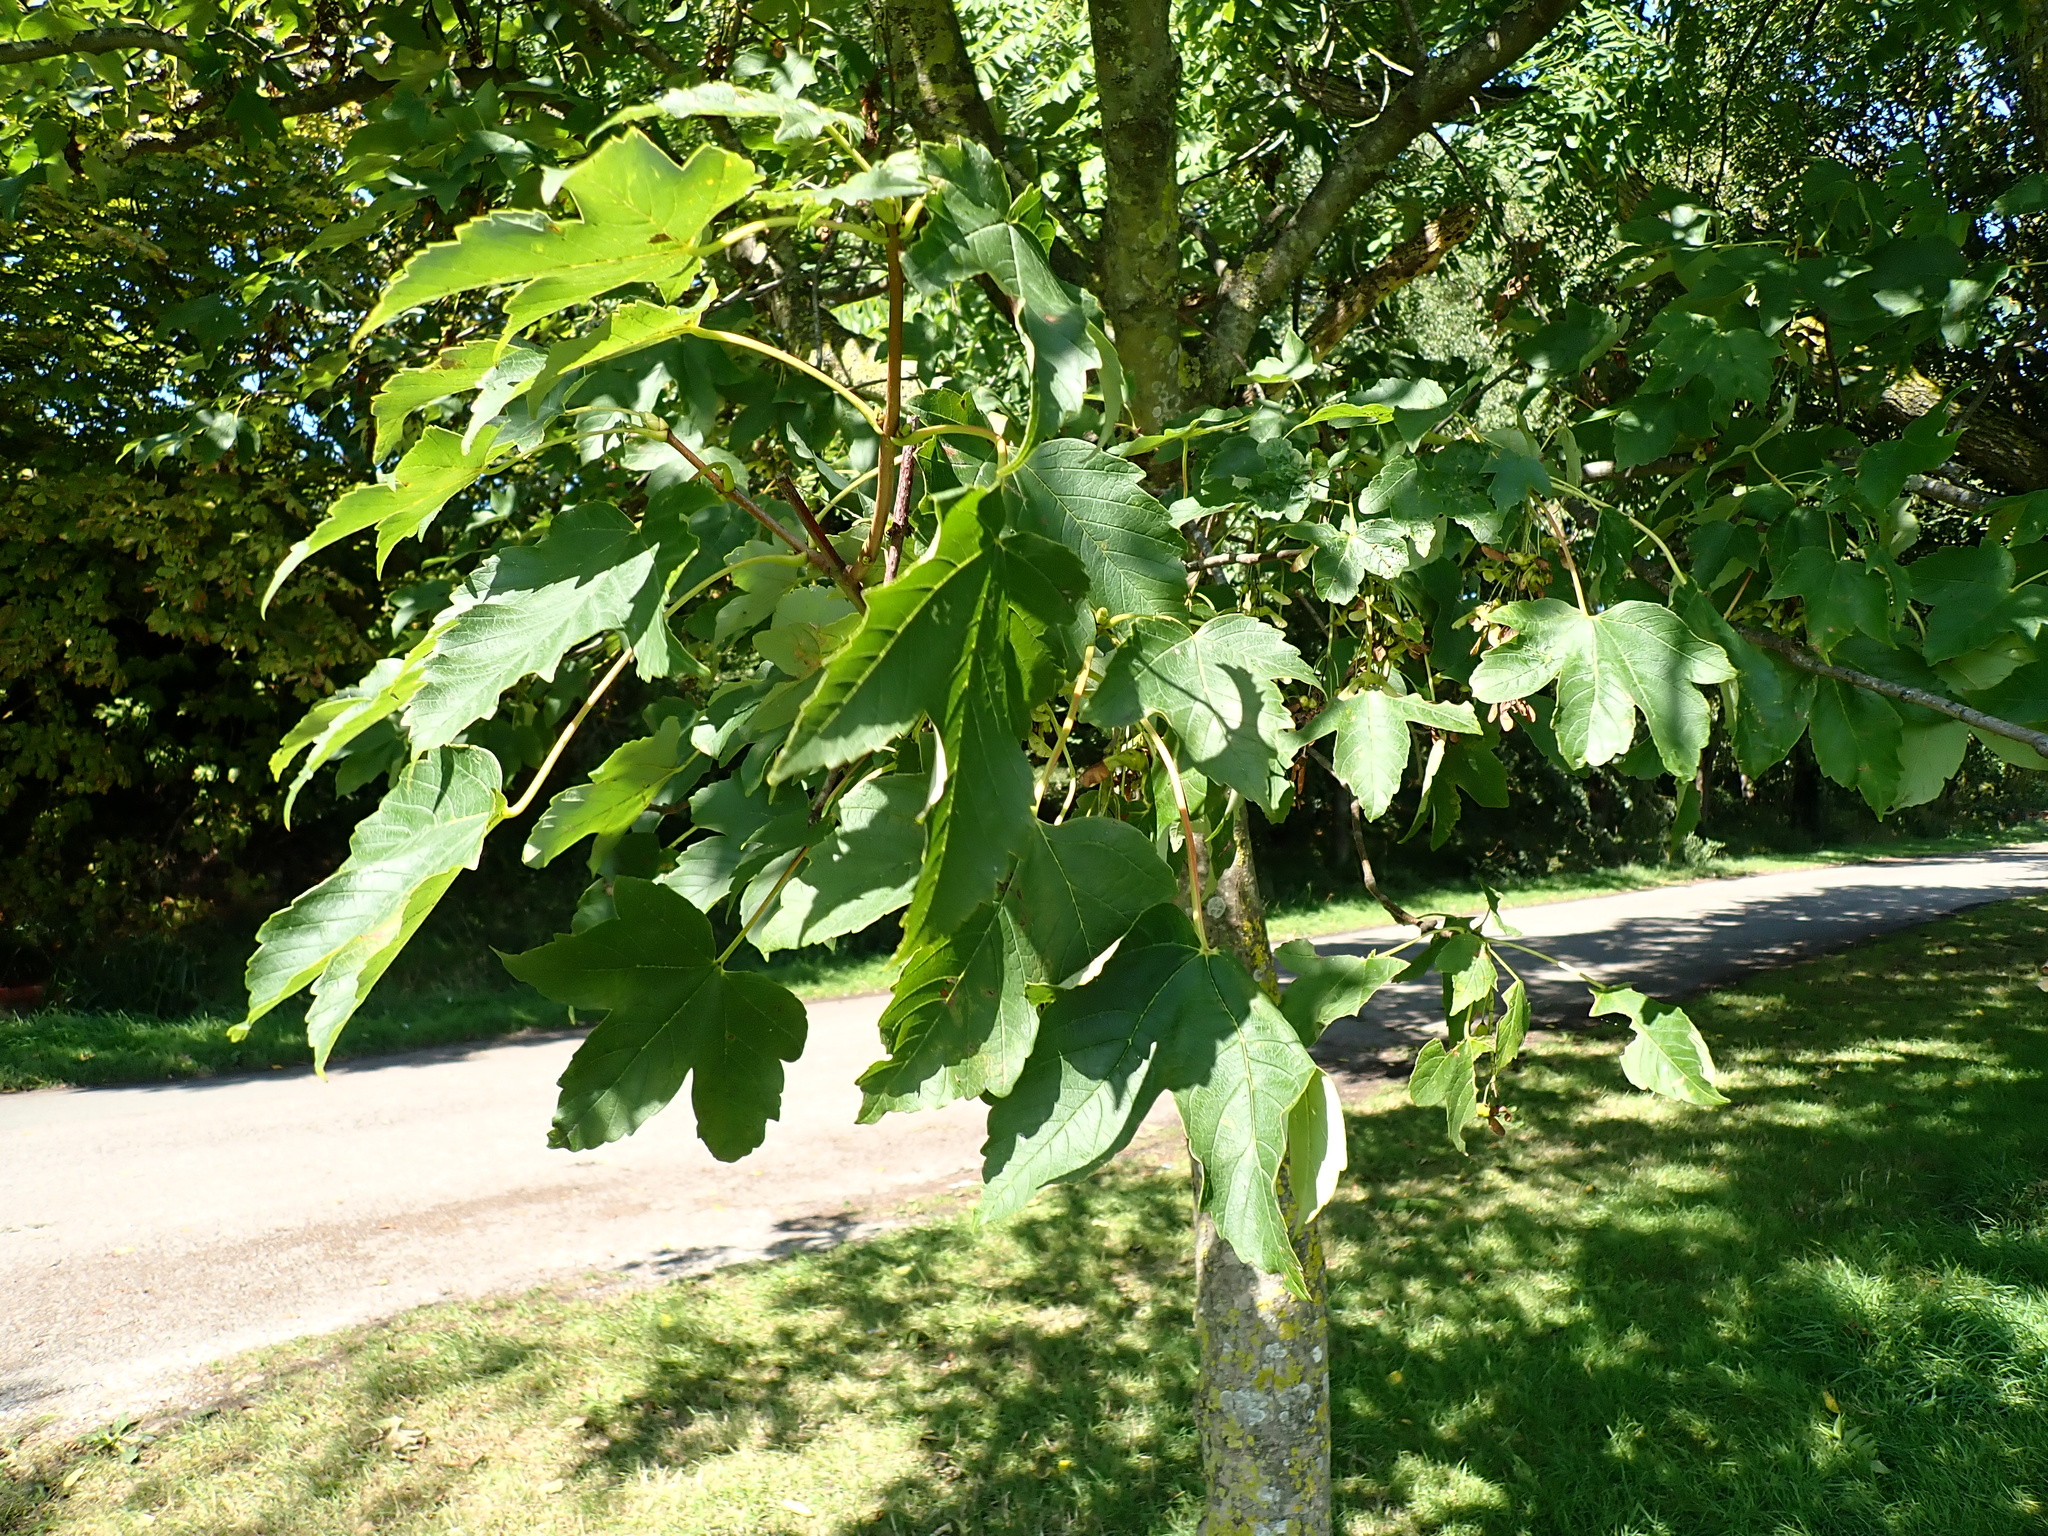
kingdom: Plantae
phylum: Tracheophyta
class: Magnoliopsida
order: Sapindales
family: Sapindaceae
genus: Acer
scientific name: Acer pseudoplatanus
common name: Sycamore
